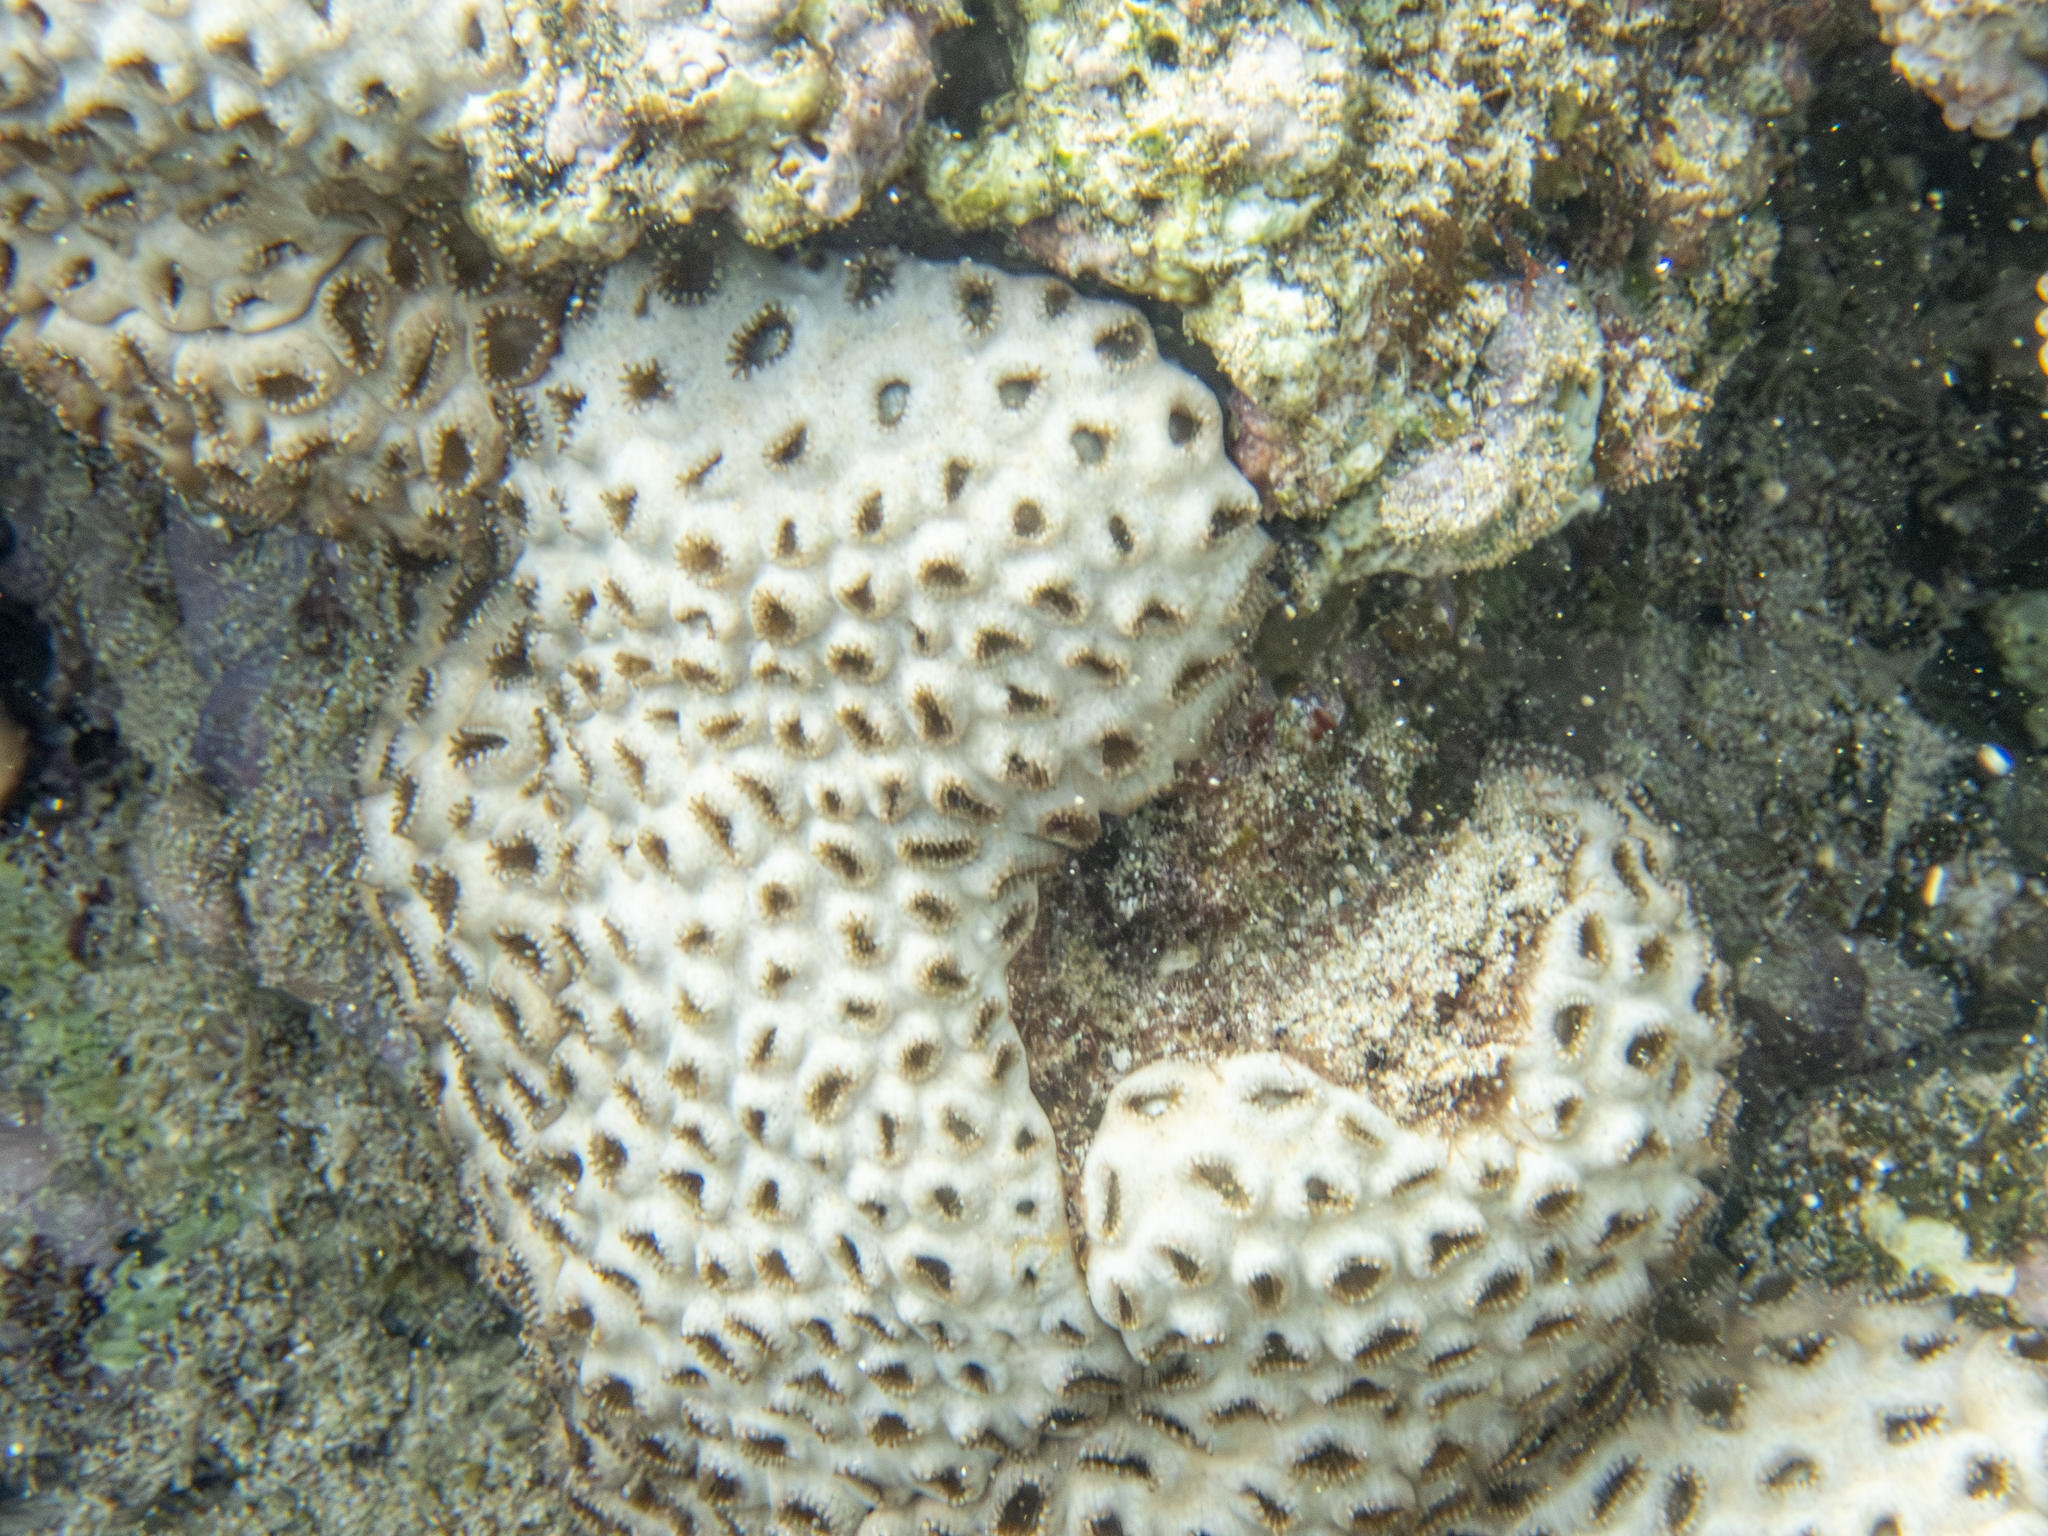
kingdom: Animalia
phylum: Cnidaria
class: Anthozoa
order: Zoantharia
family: Sphenopidae
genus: Palythoa
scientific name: Palythoa tuberculosa
